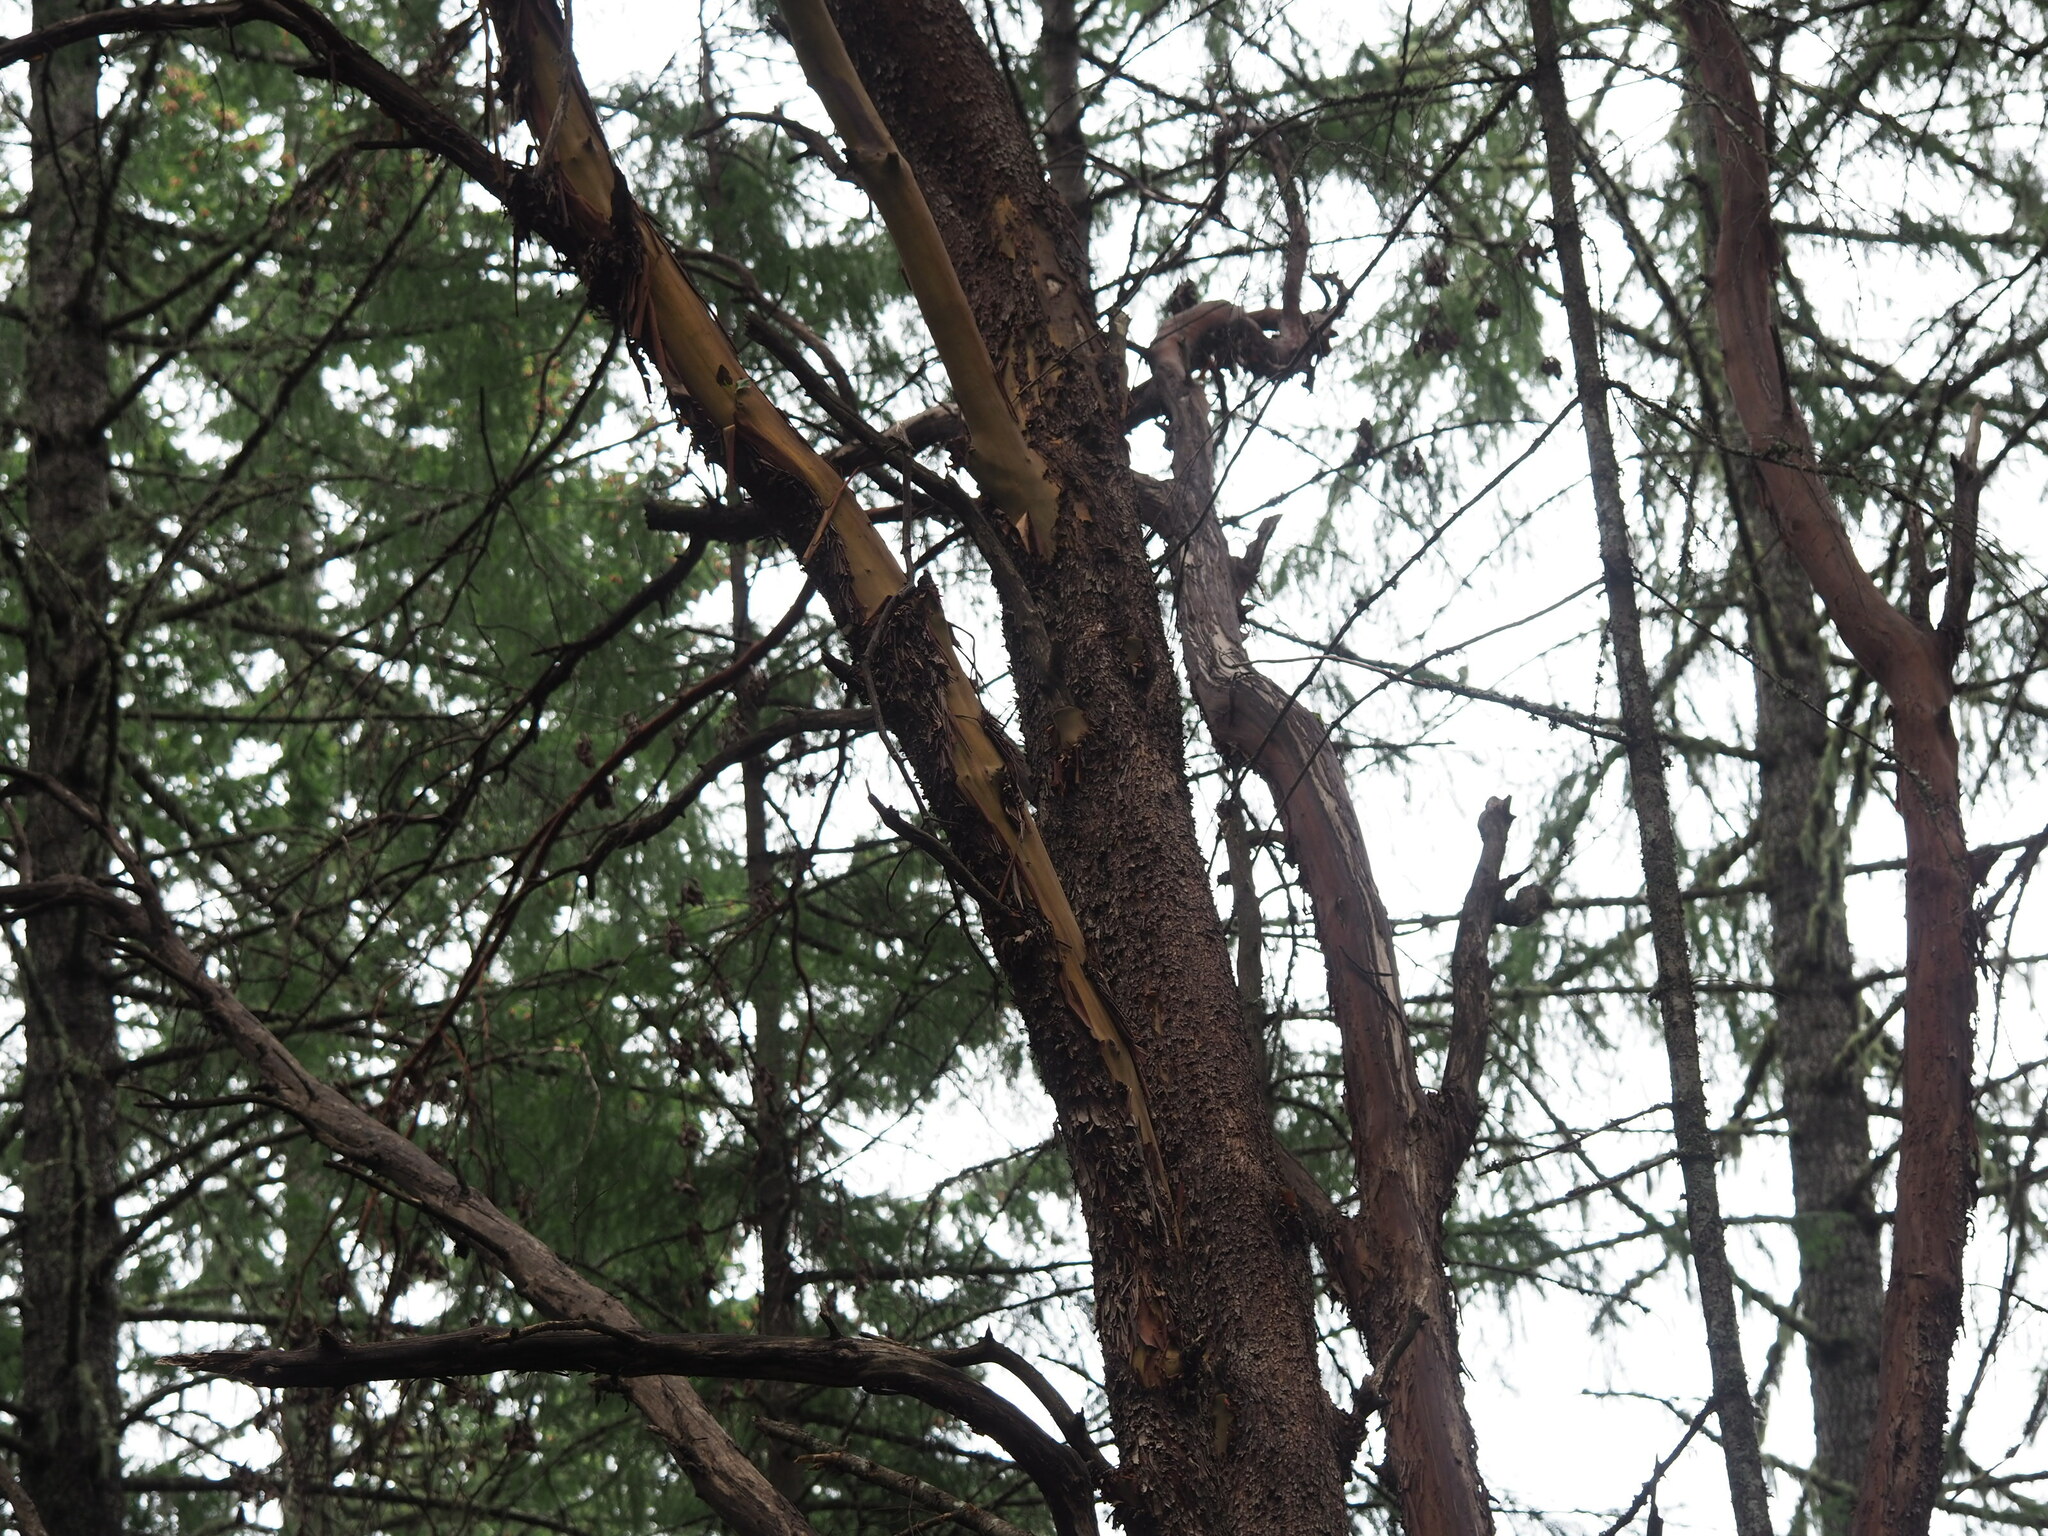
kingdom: Plantae
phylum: Tracheophyta
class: Magnoliopsida
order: Ericales
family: Ericaceae
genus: Arbutus
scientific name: Arbutus menziesii
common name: Pacific madrone
